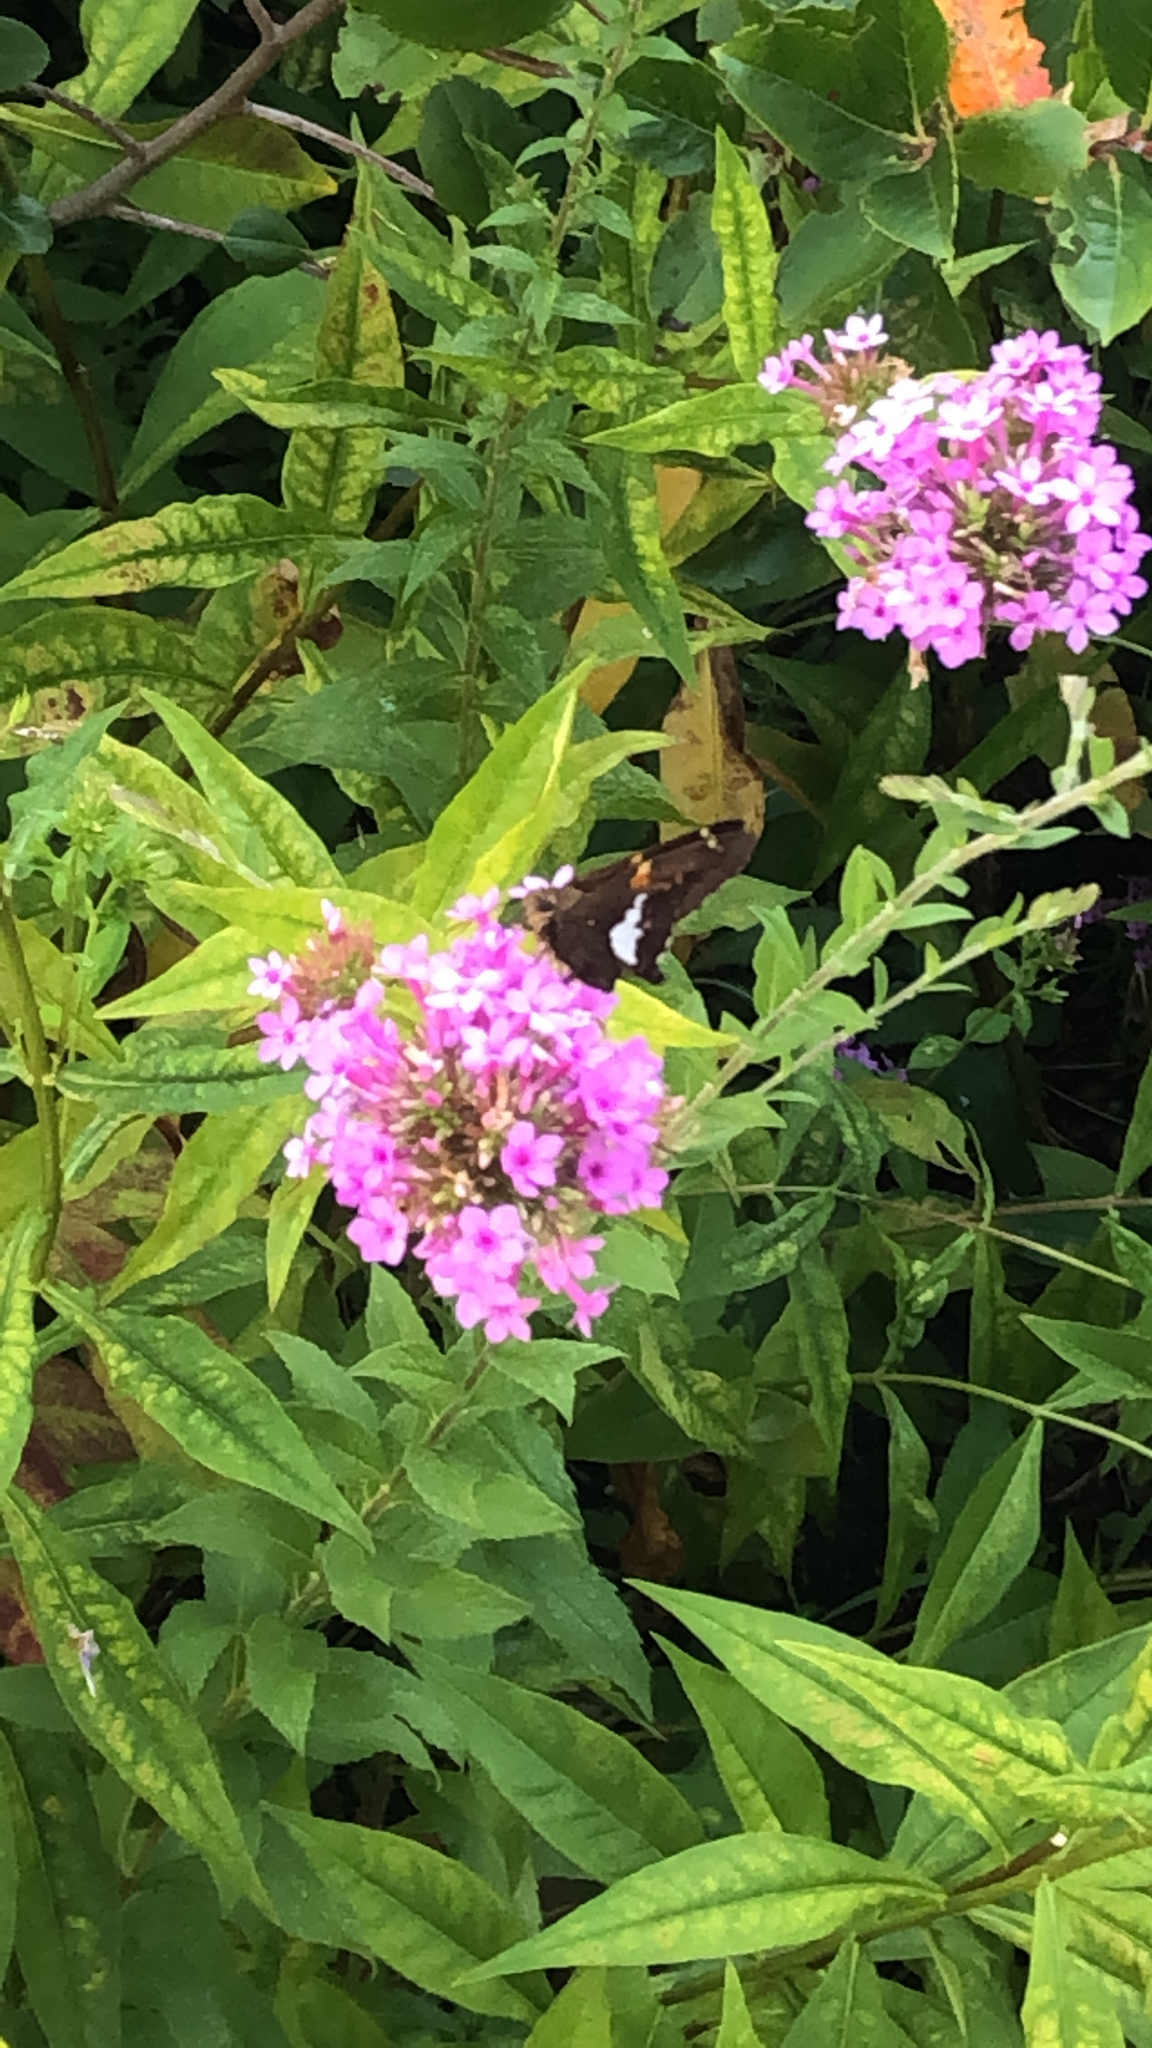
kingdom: Animalia
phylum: Arthropoda
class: Insecta
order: Lepidoptera
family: Hesperiidae
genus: Epargyreus
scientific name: Epargyreus clarus
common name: Silver-spotted skipper
